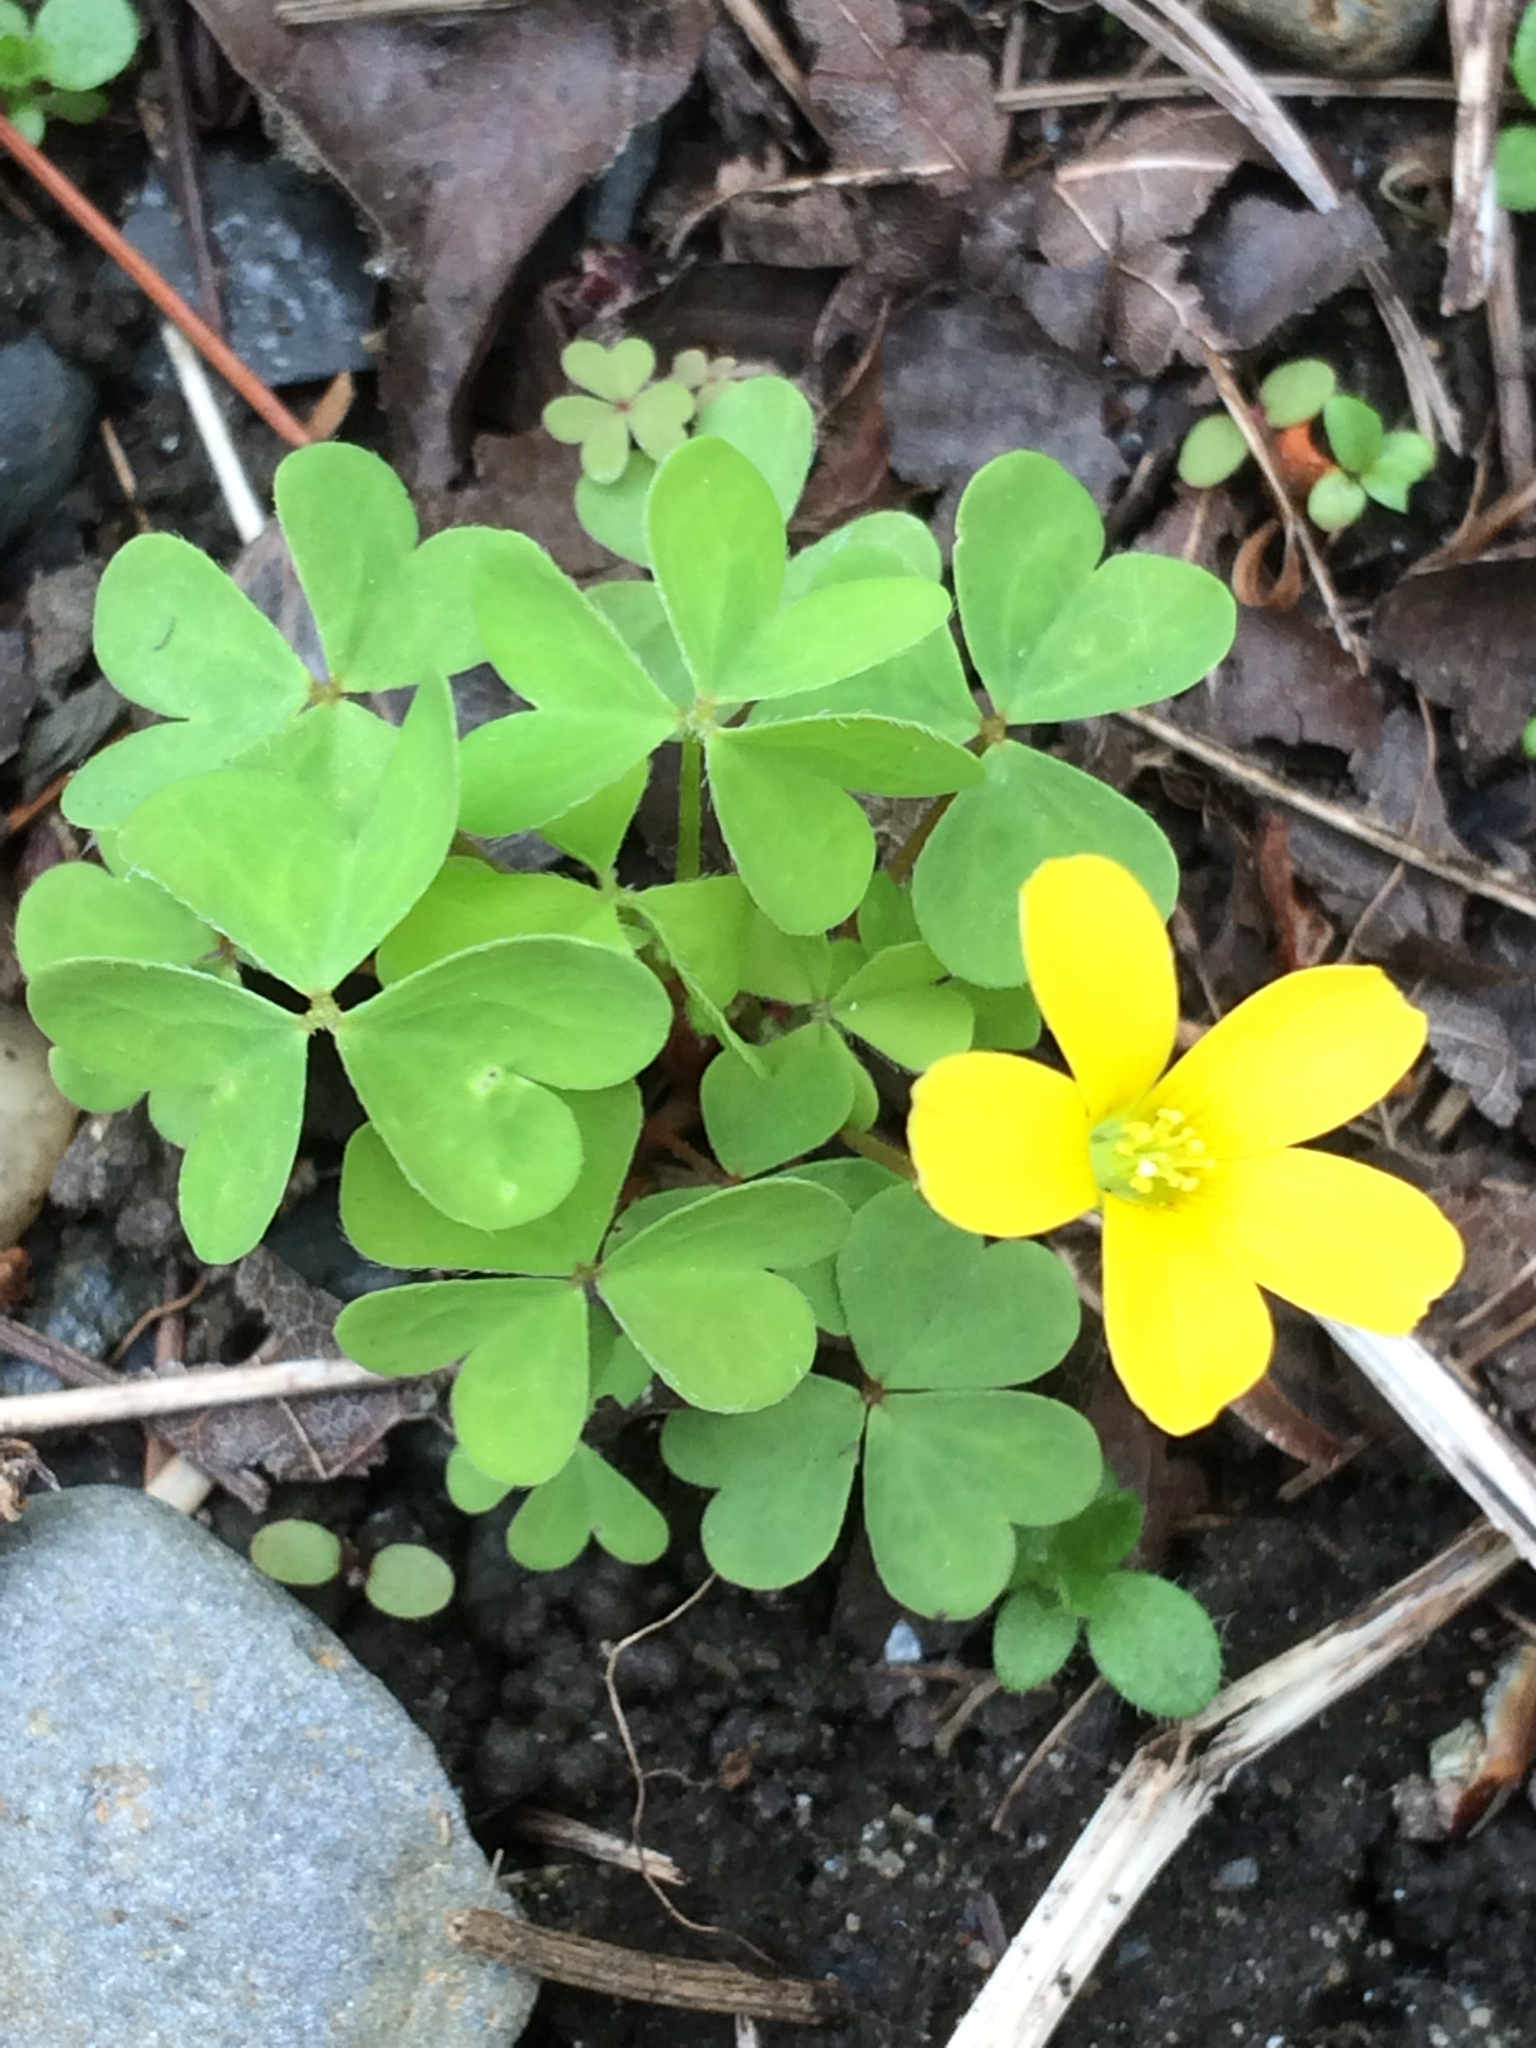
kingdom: Plantae
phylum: Tracheophyta
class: Magnoliopsida
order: Oxalidales
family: Oxalidaceae
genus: Oxalis
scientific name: Oxalis stricta
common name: Upright yellow-sorrel
